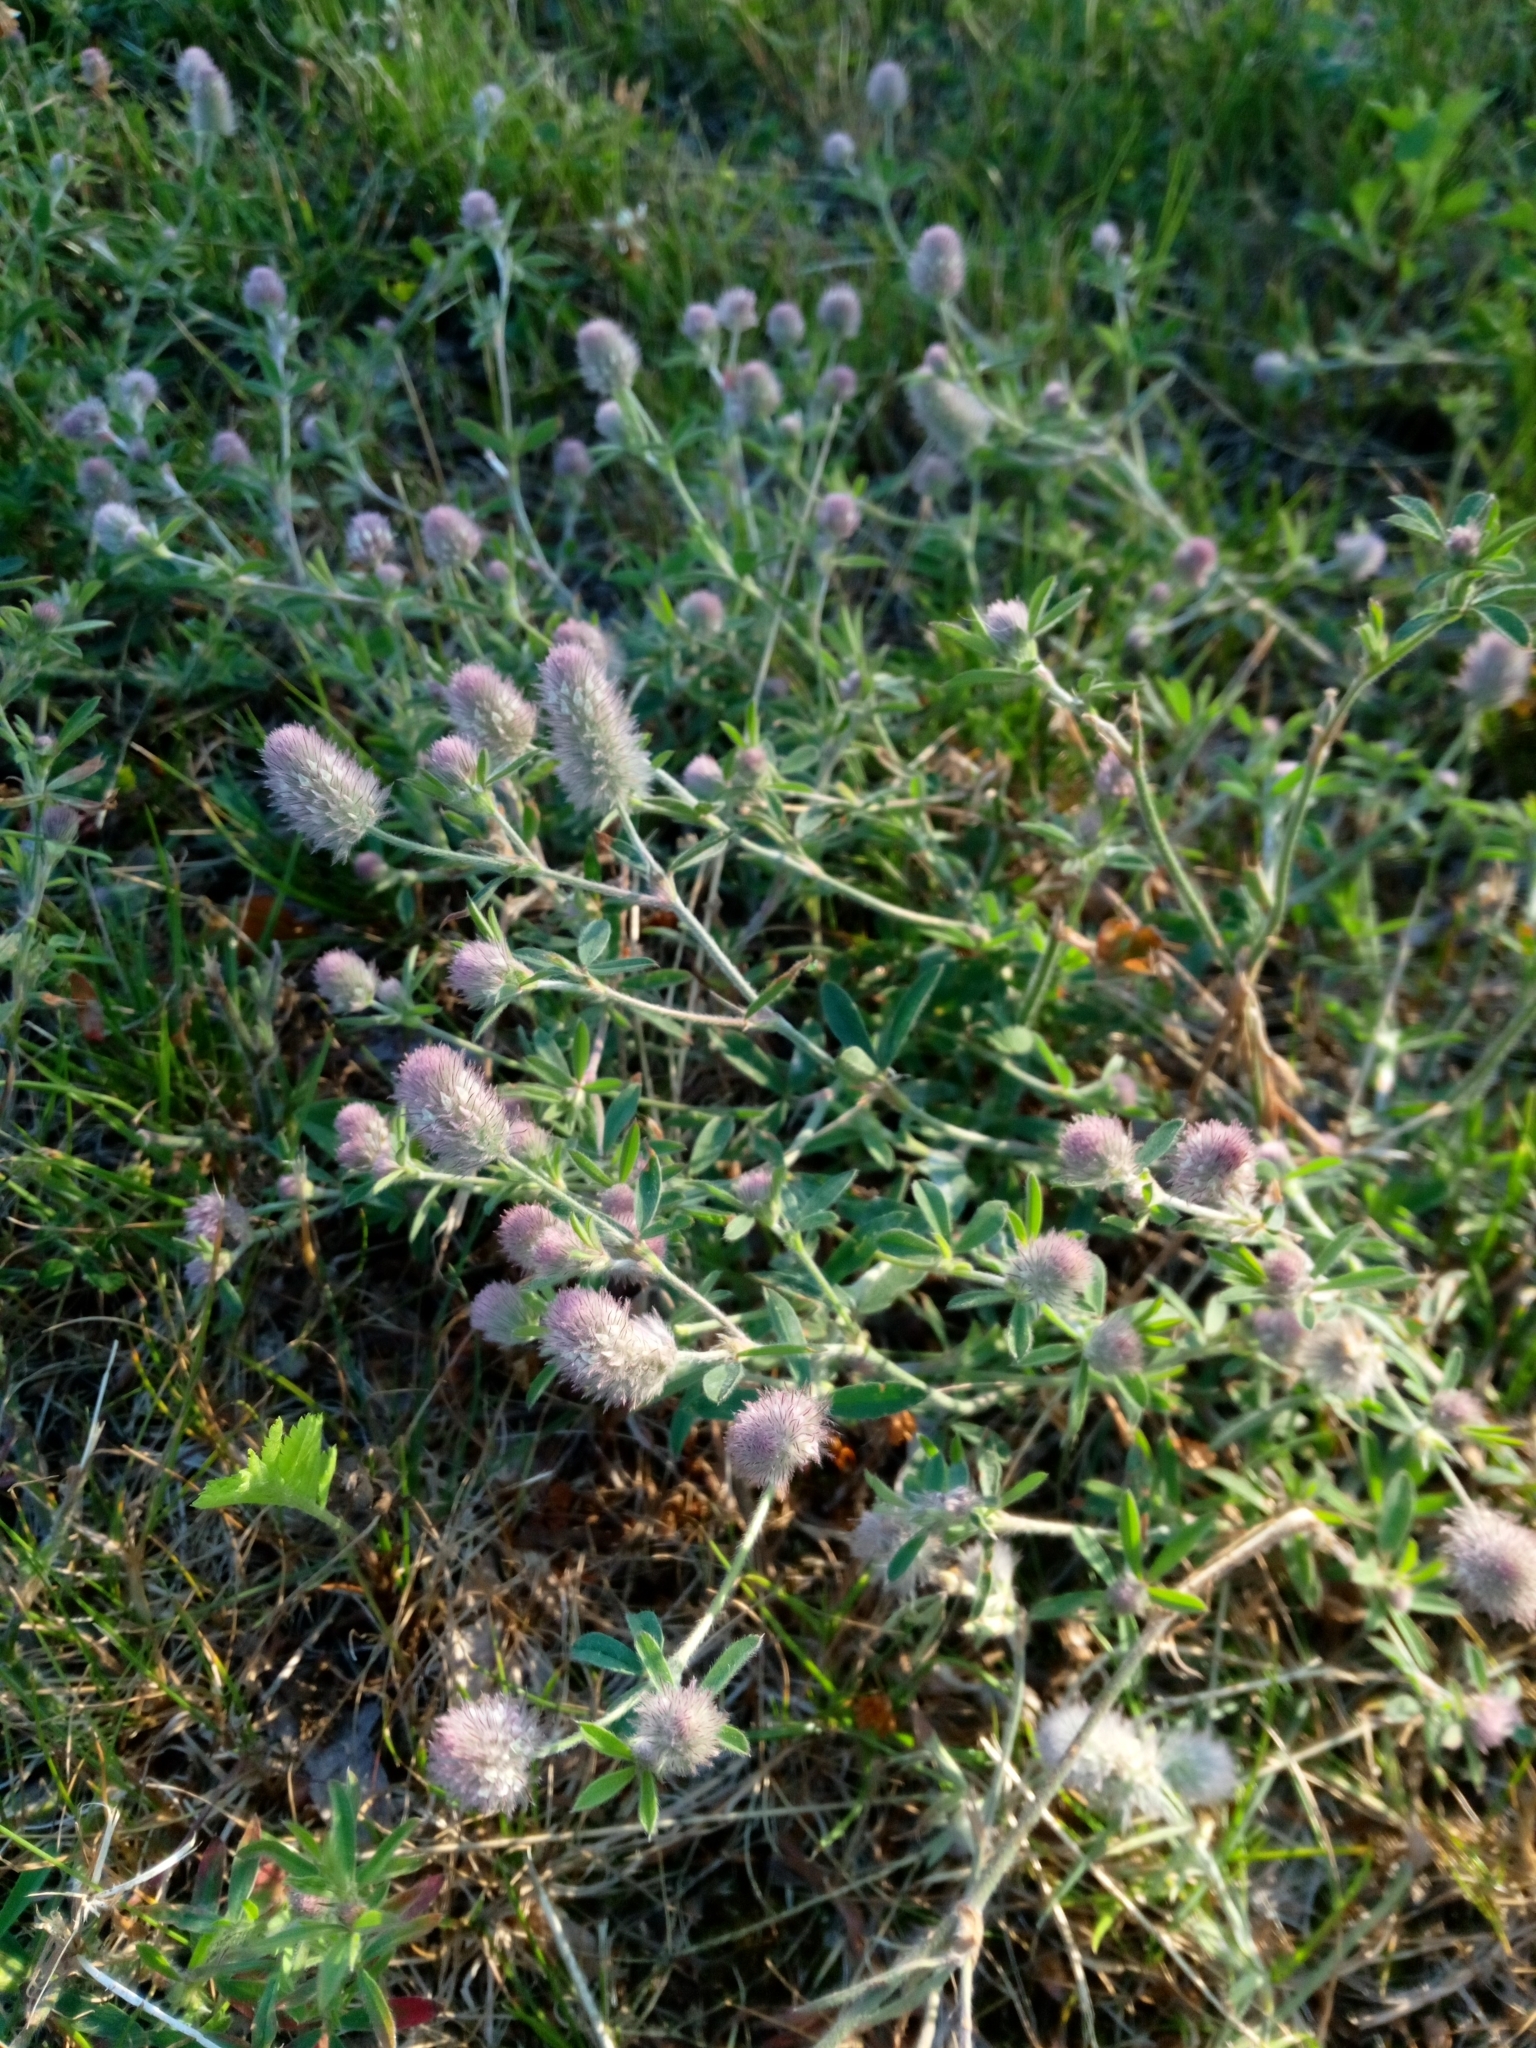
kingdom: Plantae
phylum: Tracheophyta
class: Magnoliopsida
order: Fabales
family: Fabaceae
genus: Trifolium
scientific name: Trifolium arvense
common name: Hare's-foot clover
